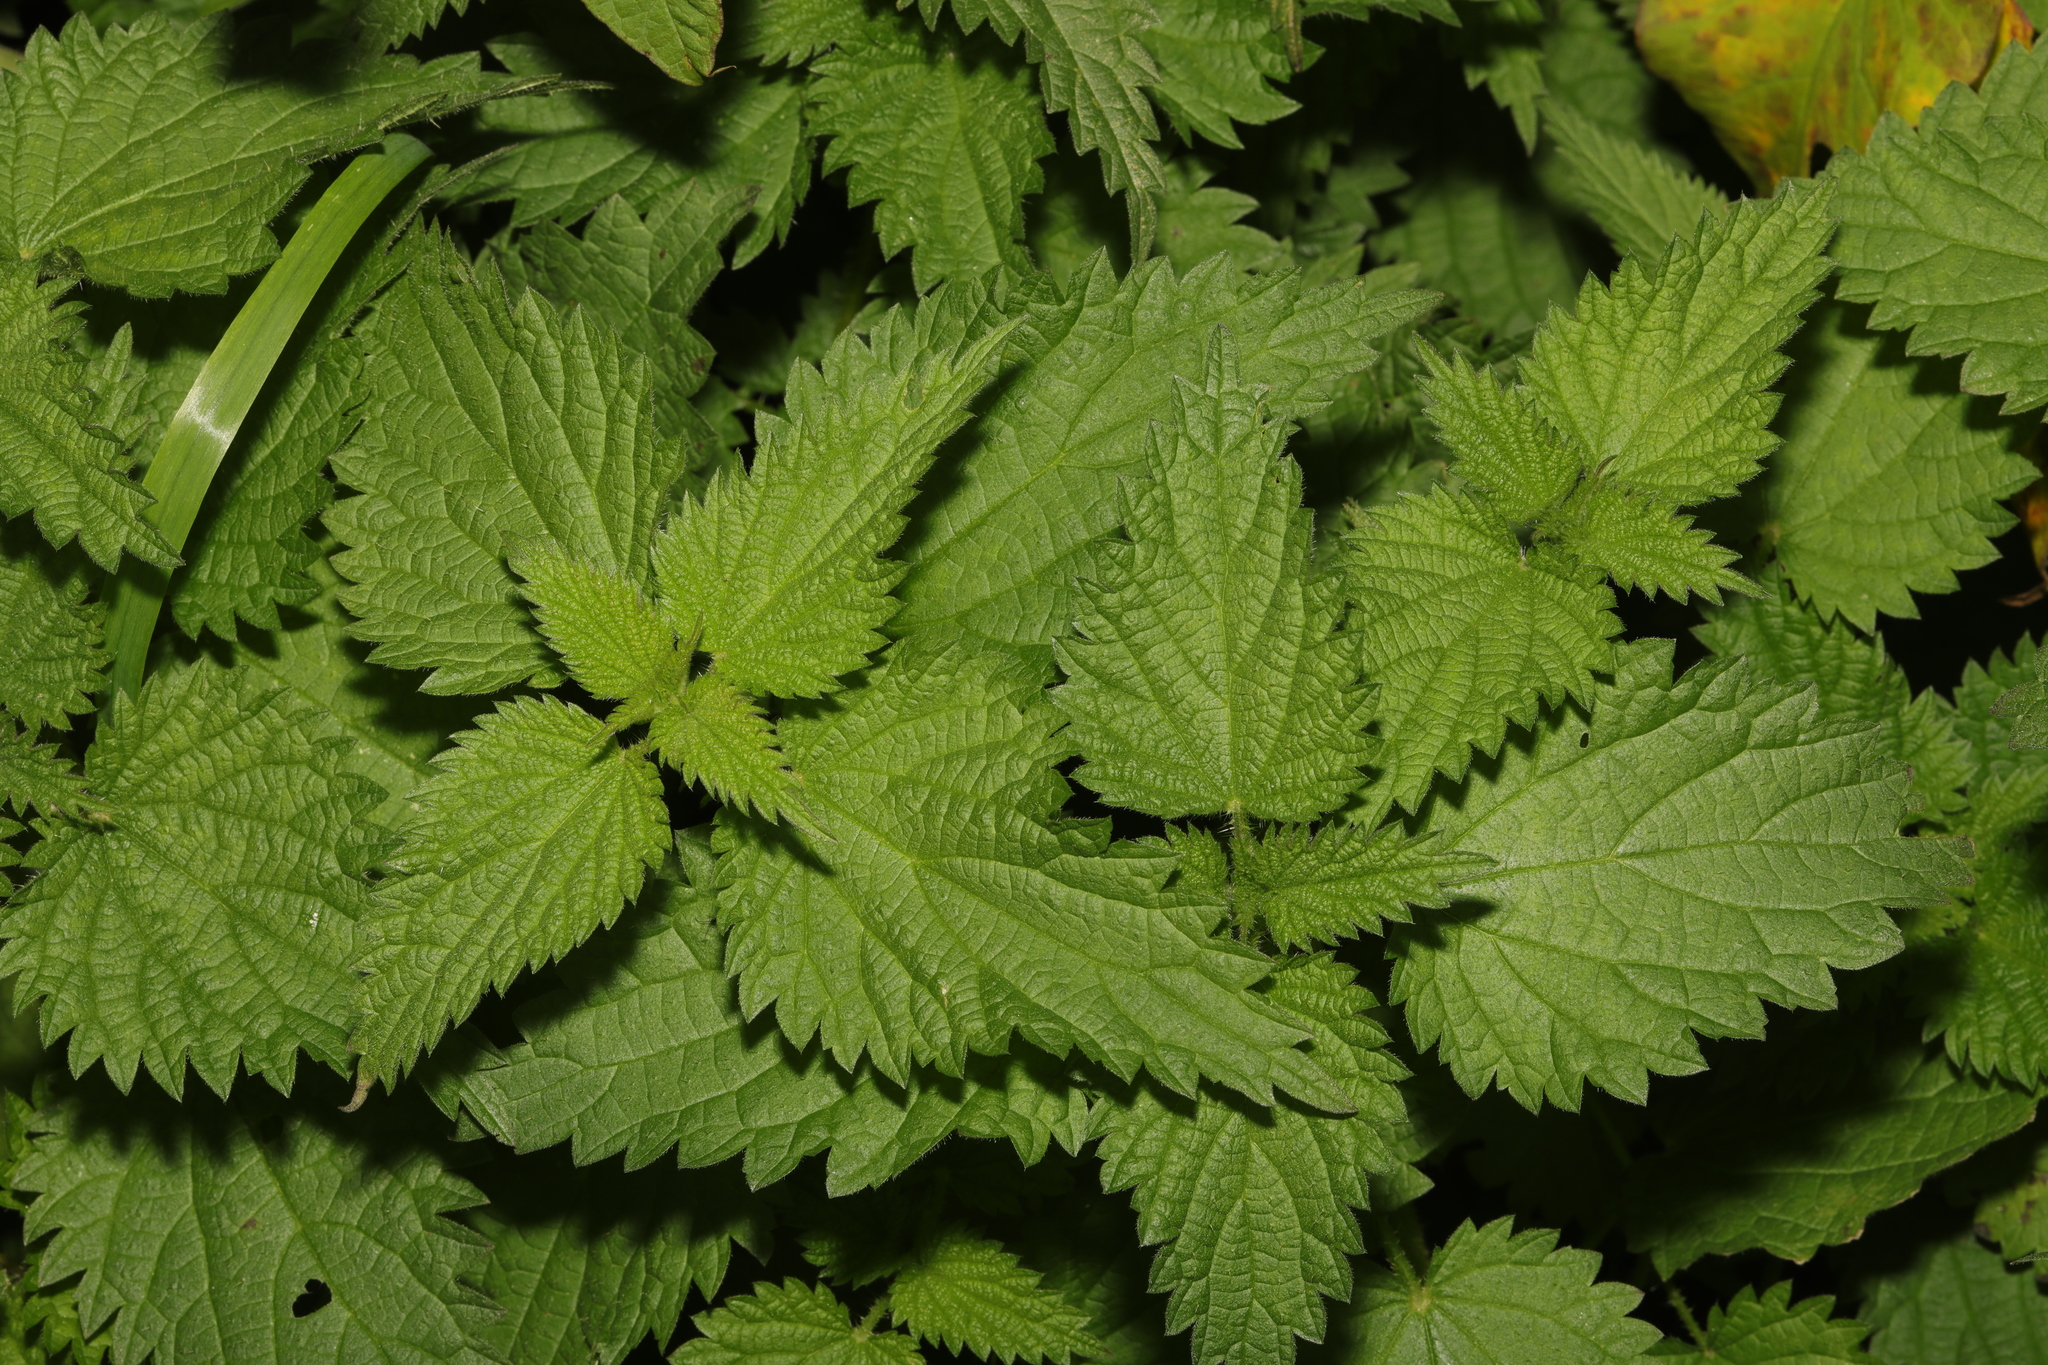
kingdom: Plantae
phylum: Tracheophyta
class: Magnoliopsida
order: Rosales
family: Urticaceae
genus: Urtica
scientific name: Urtica dioica
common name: Common nettle
